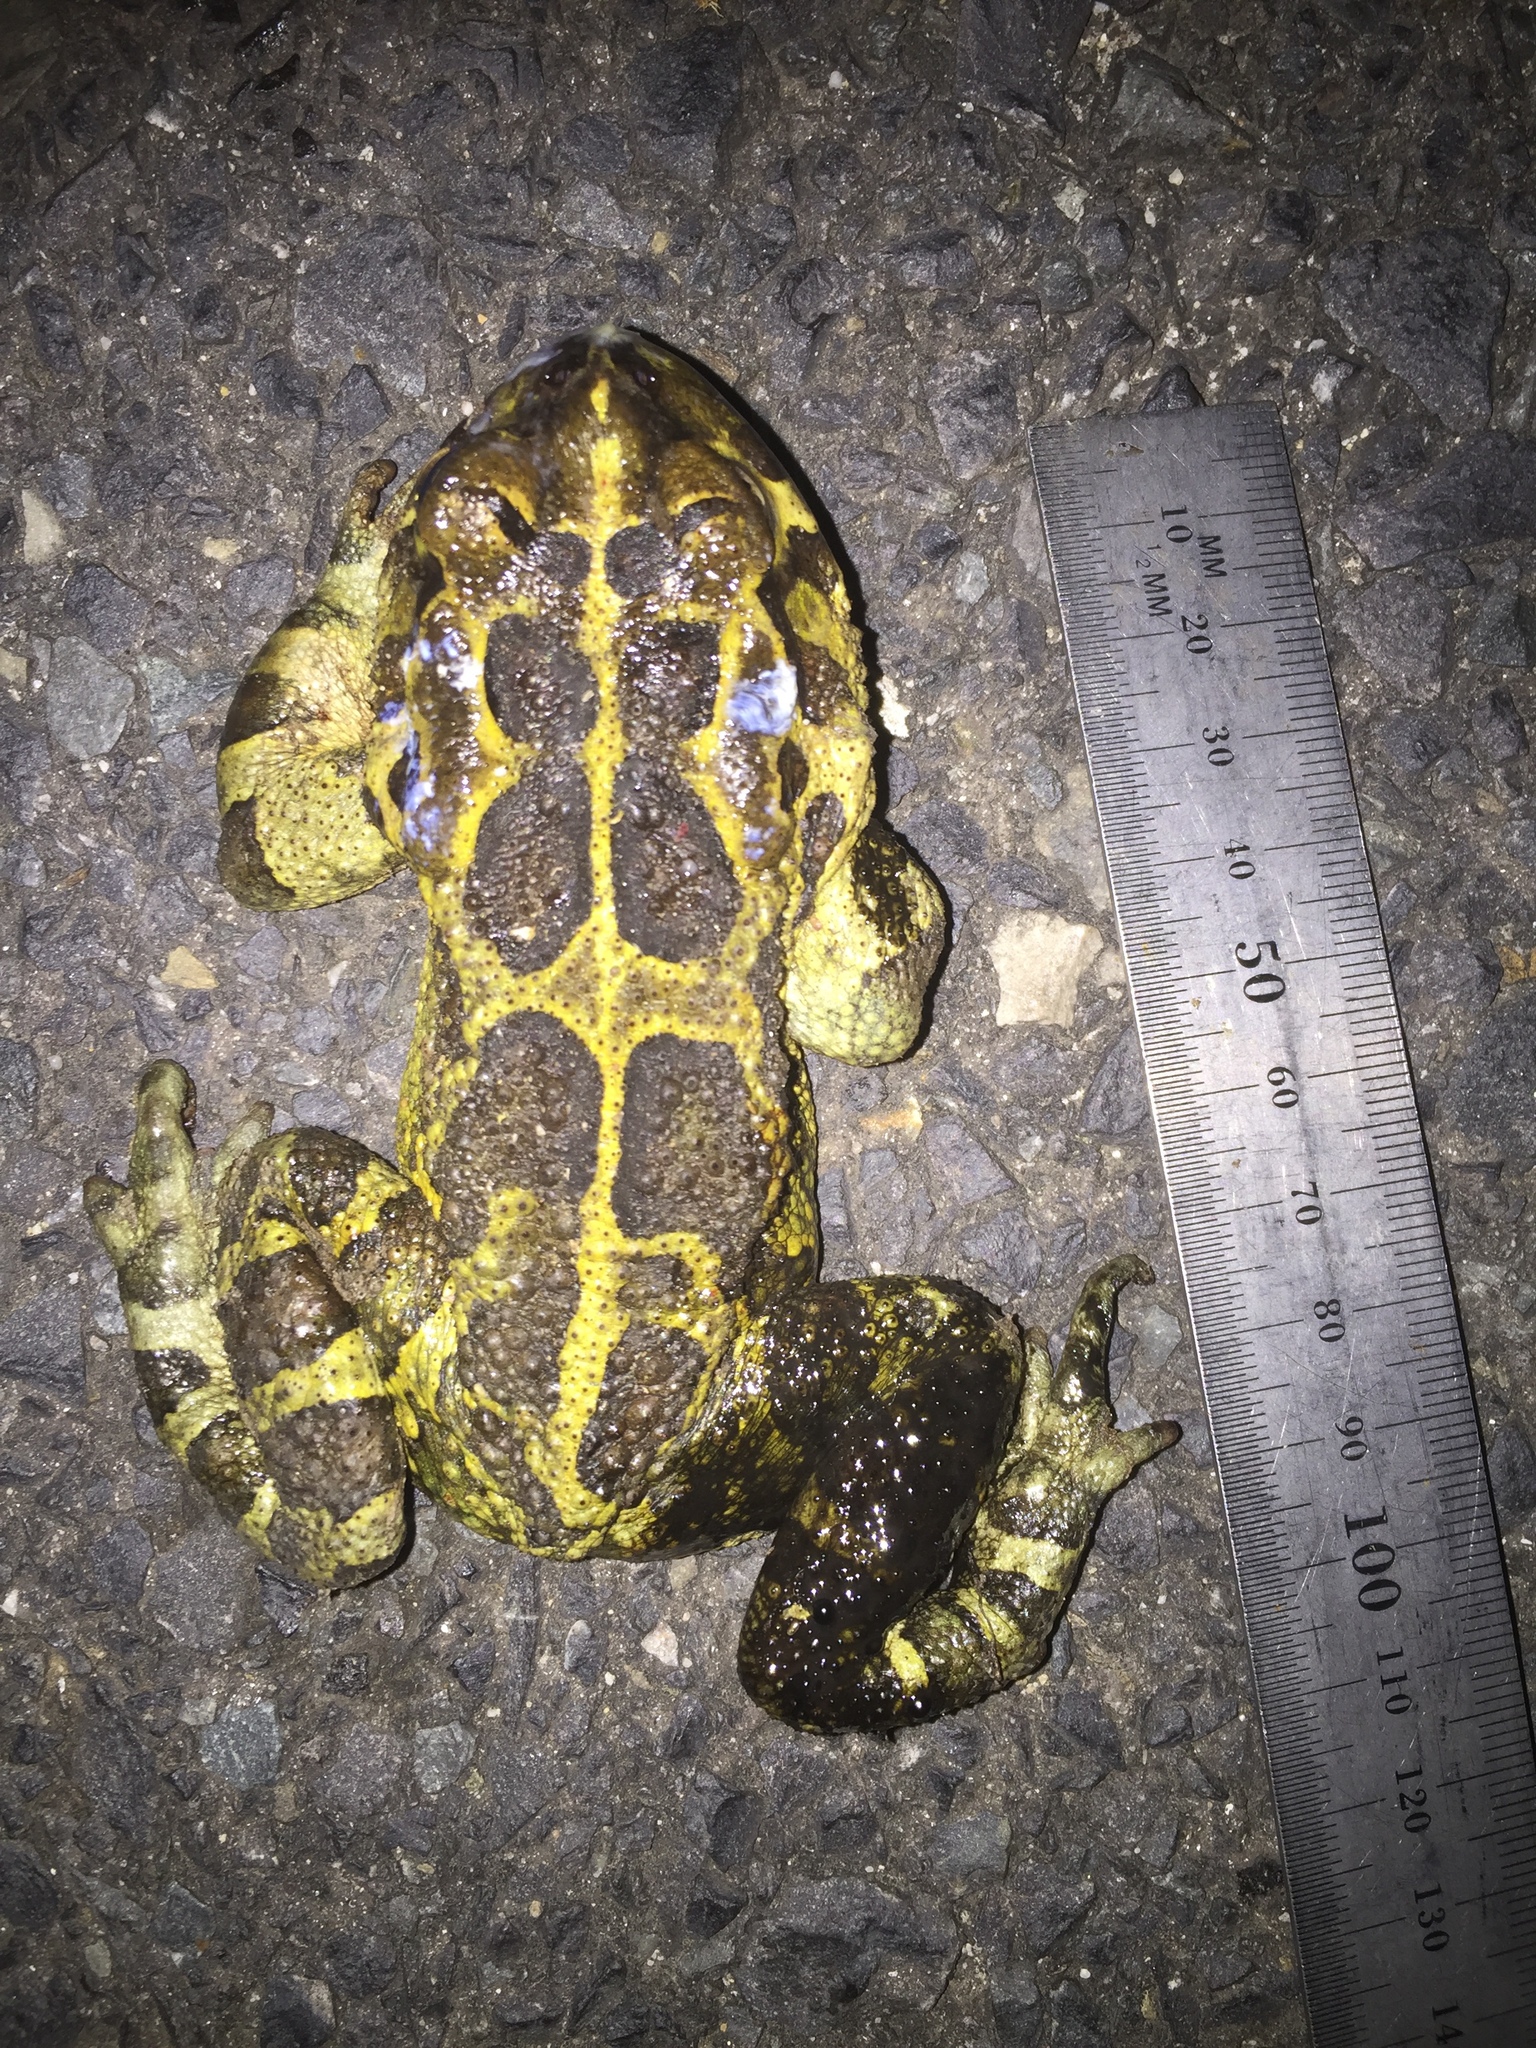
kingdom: Animalia
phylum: Chordata
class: Amphibia
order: Anura
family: Bufonidae
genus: Sclerophrys
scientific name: Sclerophrys pantherina
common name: Panther toad
